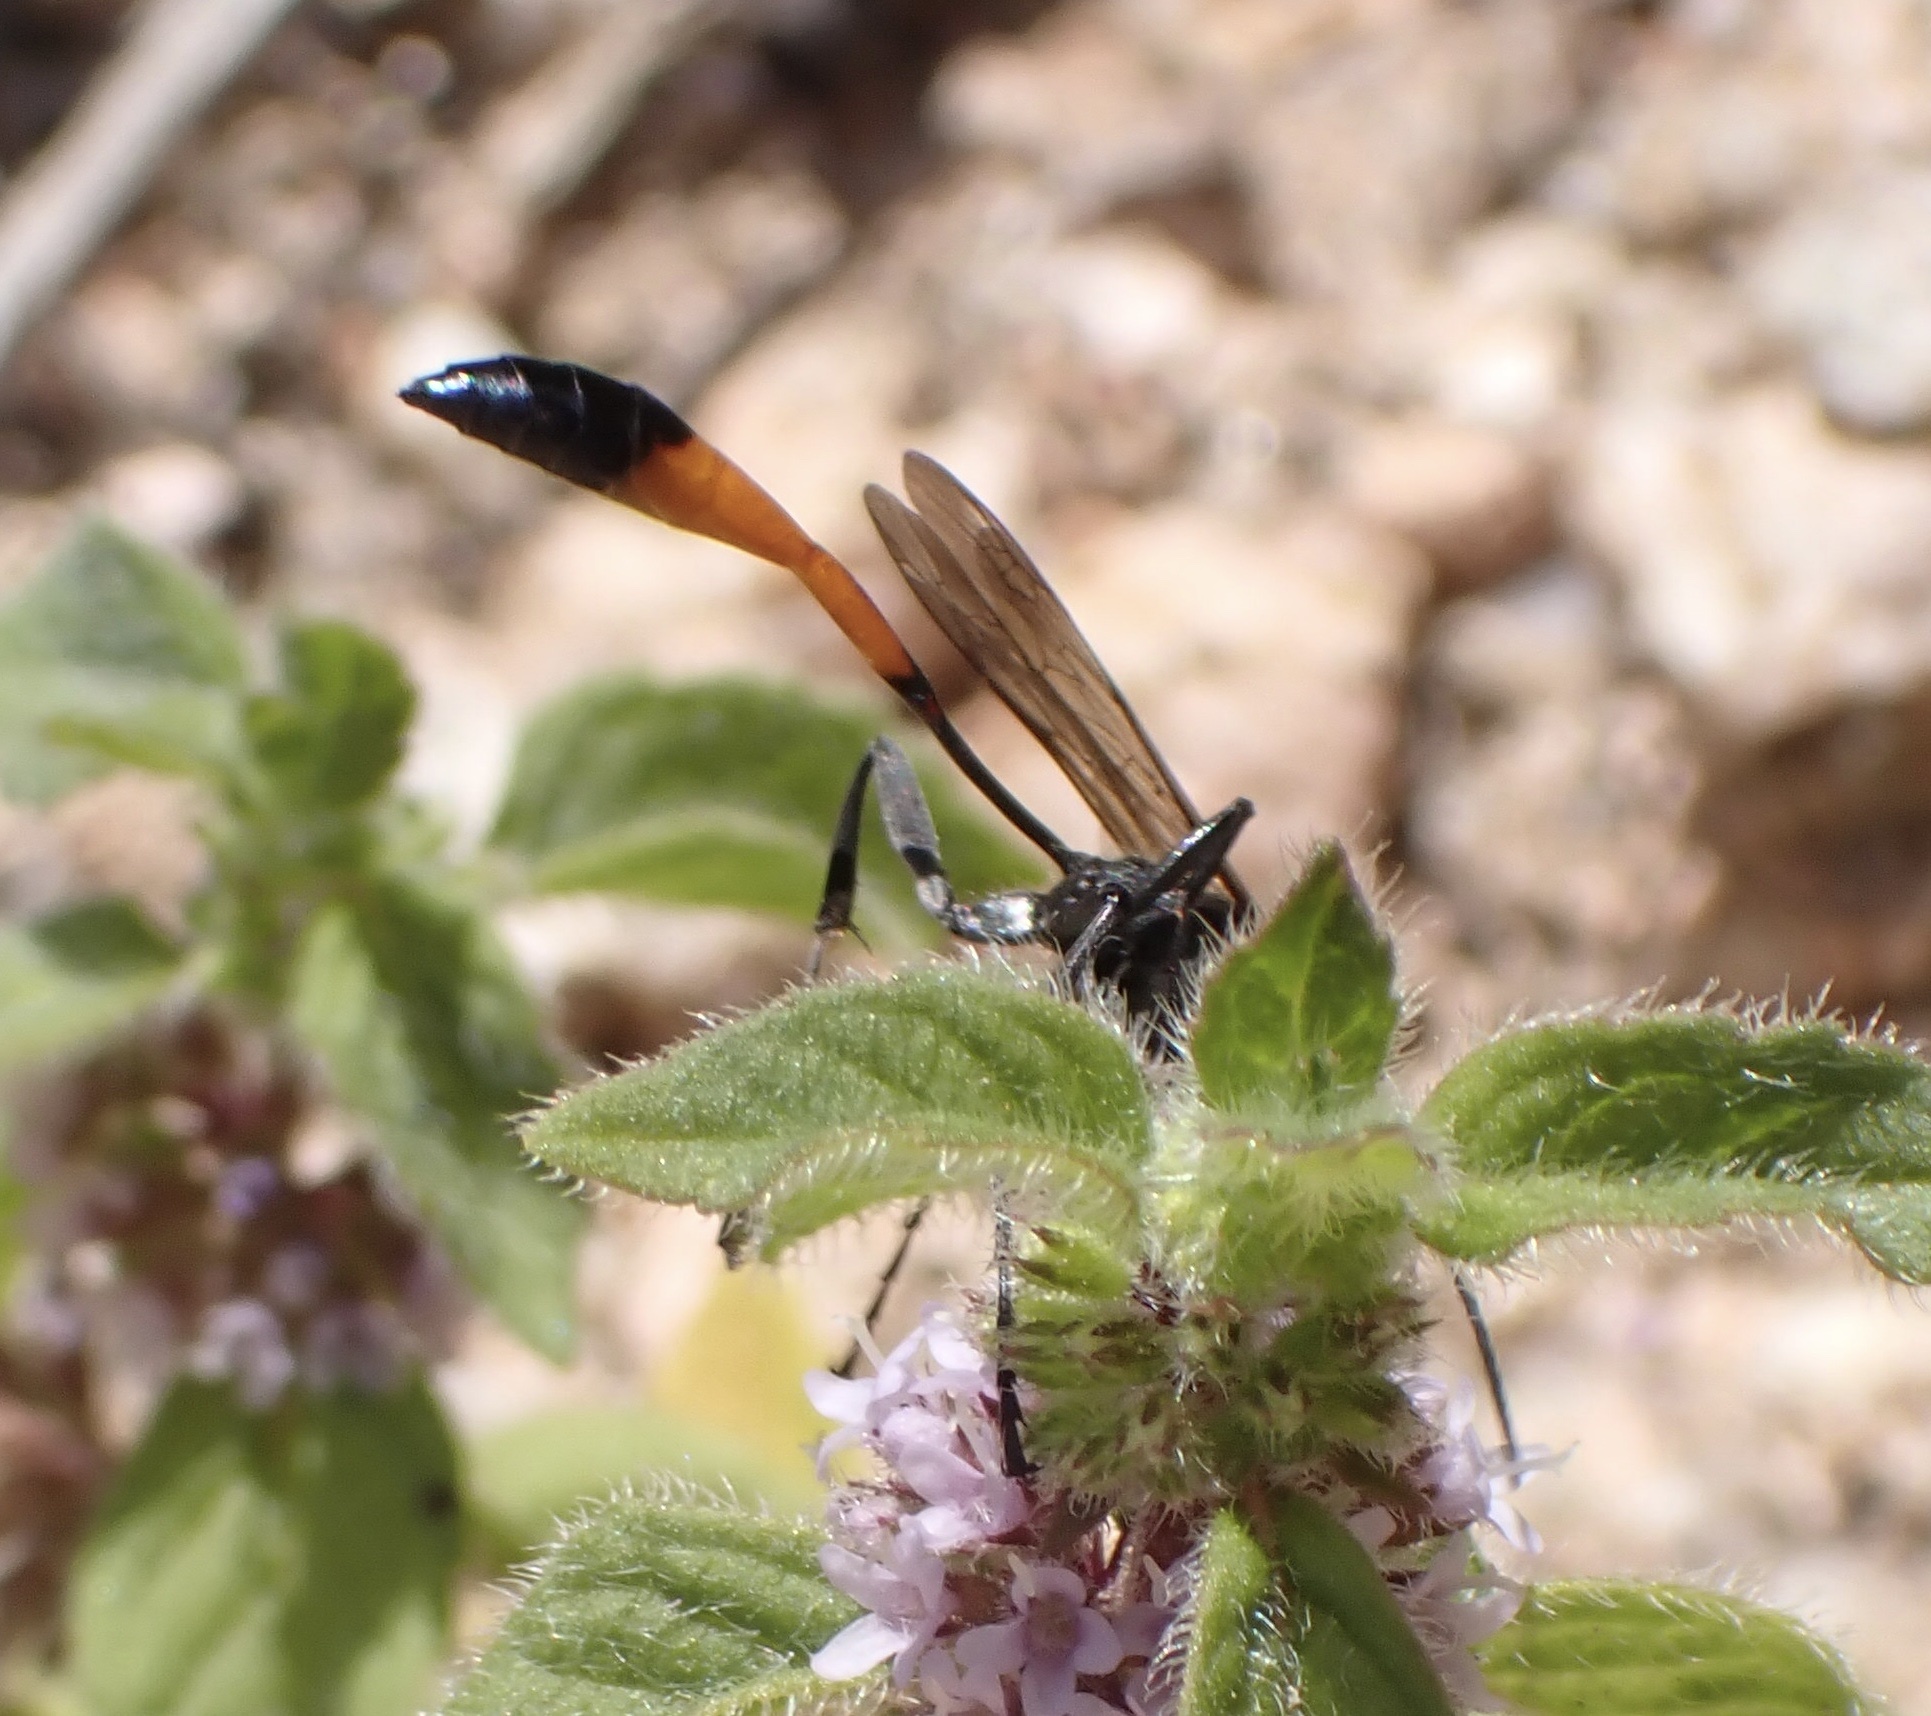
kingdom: Animalia
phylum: Arthropoda
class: Insecta
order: Hymenoptera
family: Sphecidae
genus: Ammophila
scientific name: Ammophila sabulosa
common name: Red banded sand wasp
